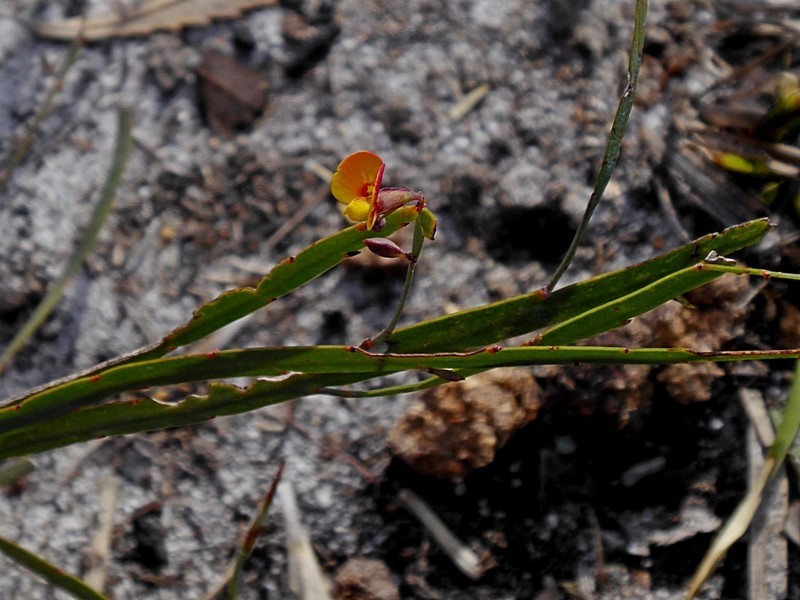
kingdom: Plantae
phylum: Tracheophyta
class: Magnoliopsida
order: Fabales
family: Fabaceae
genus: Bossiaea
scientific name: Bossiaea ensata
